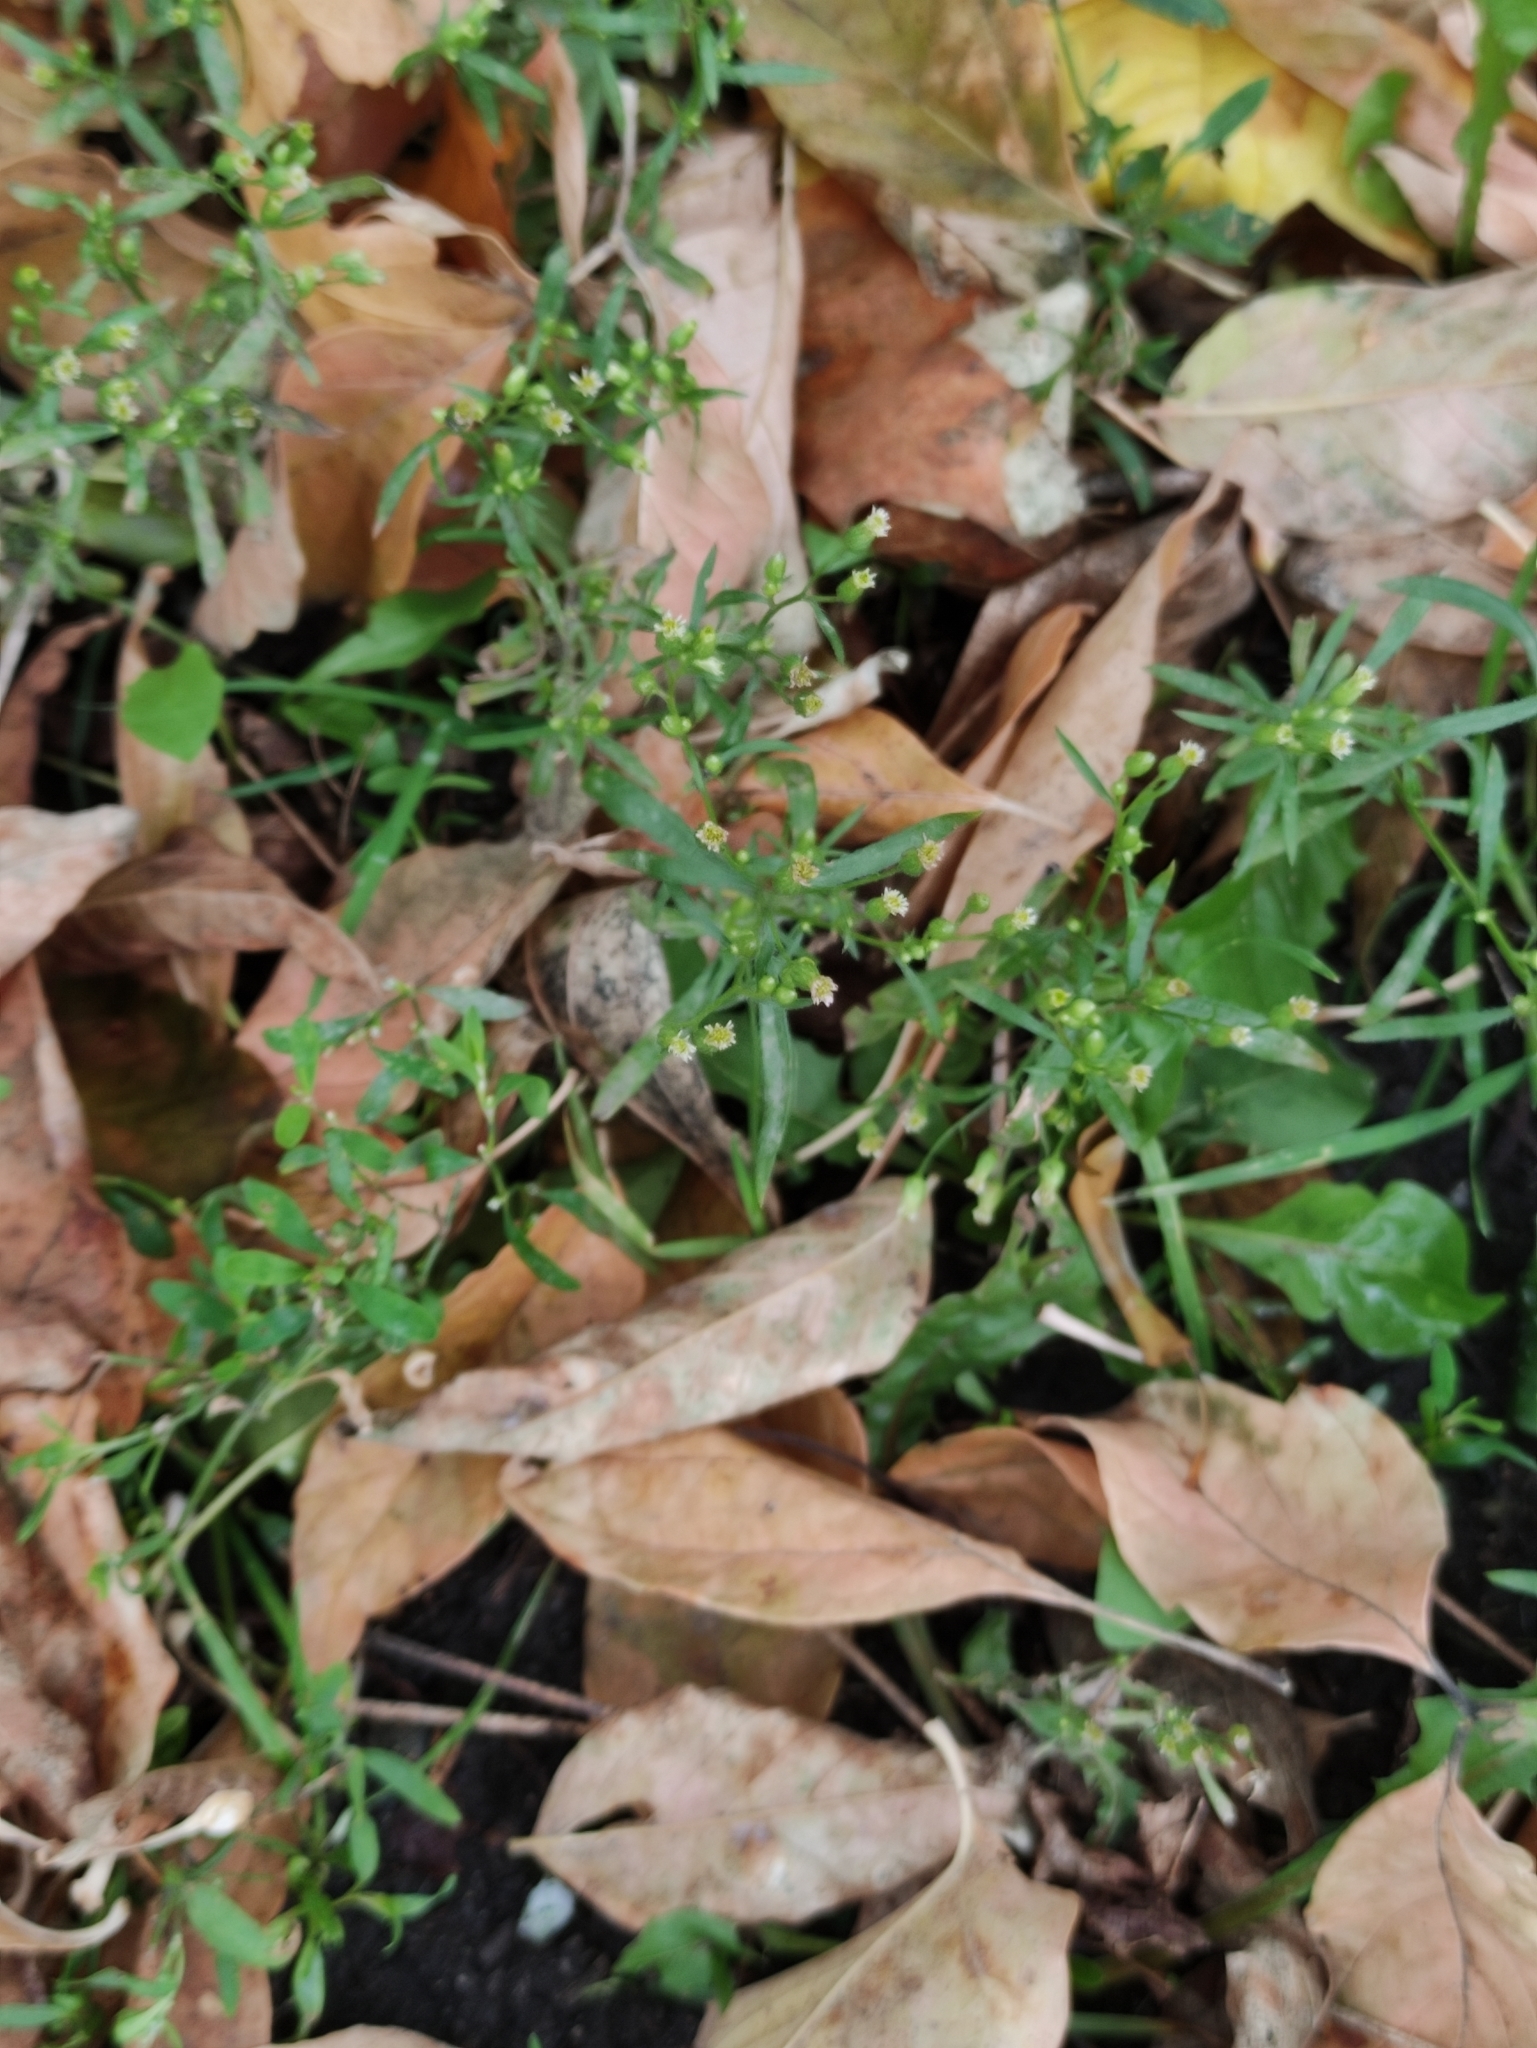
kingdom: Plantae
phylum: Tracheophyta
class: Magnoliopsida
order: Asterales
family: Asteraceae
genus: Erigeron
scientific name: Erigeron canadensis
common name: Canadian fleabane
